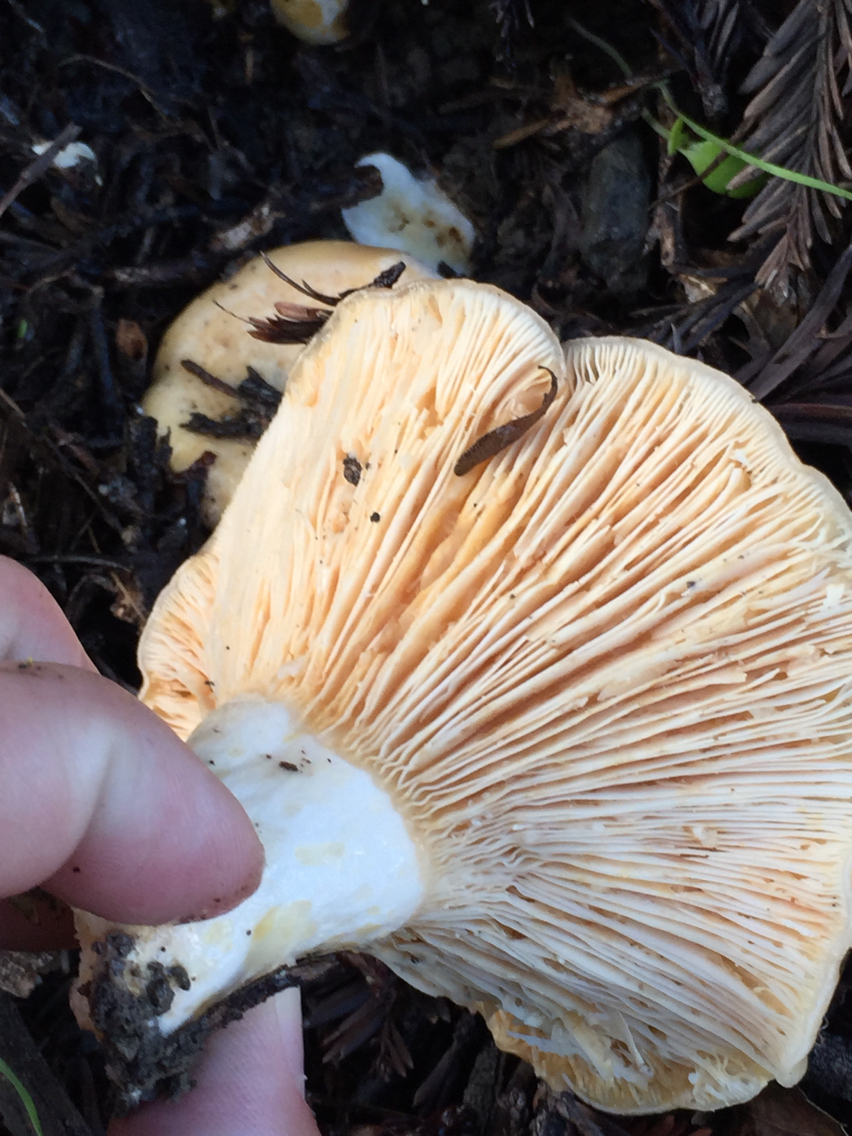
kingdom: Fungi
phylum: Basidiomycota
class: Agaricomycetes
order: Russulales
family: Russulaceae
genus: Lactarius
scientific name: Lactarius alnicola
